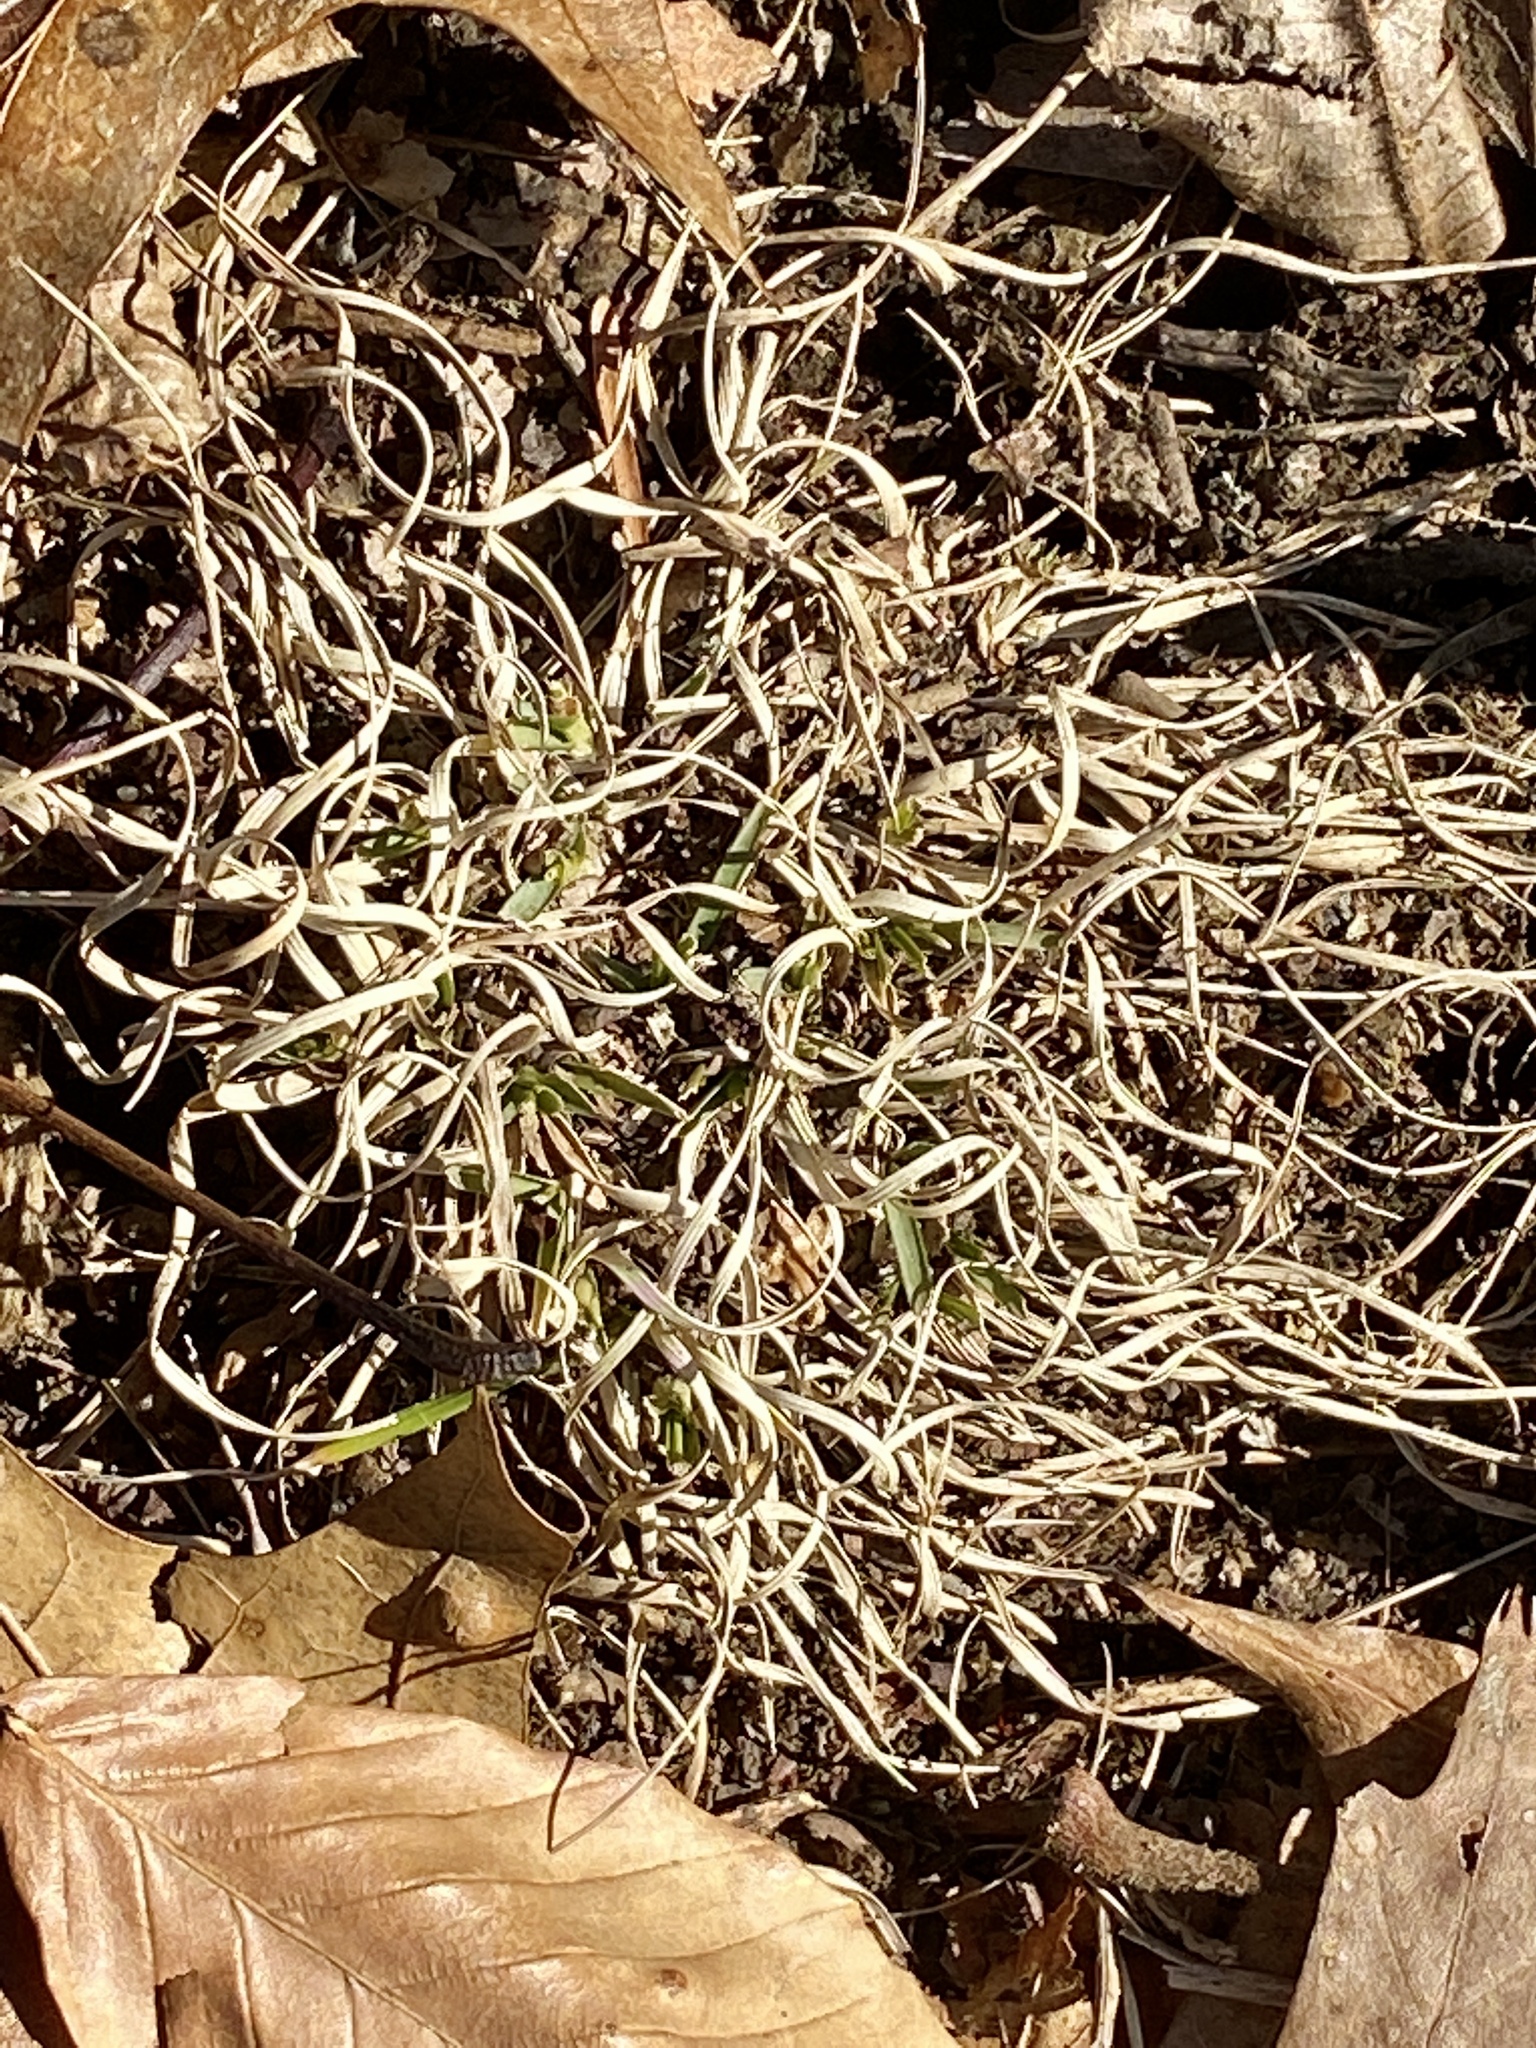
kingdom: Plantae
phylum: Tracheophyta
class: Liliopsida
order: Poales
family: Poaceae
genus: Danthonia
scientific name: Danthonia spicata
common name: Common wild oatgrass
